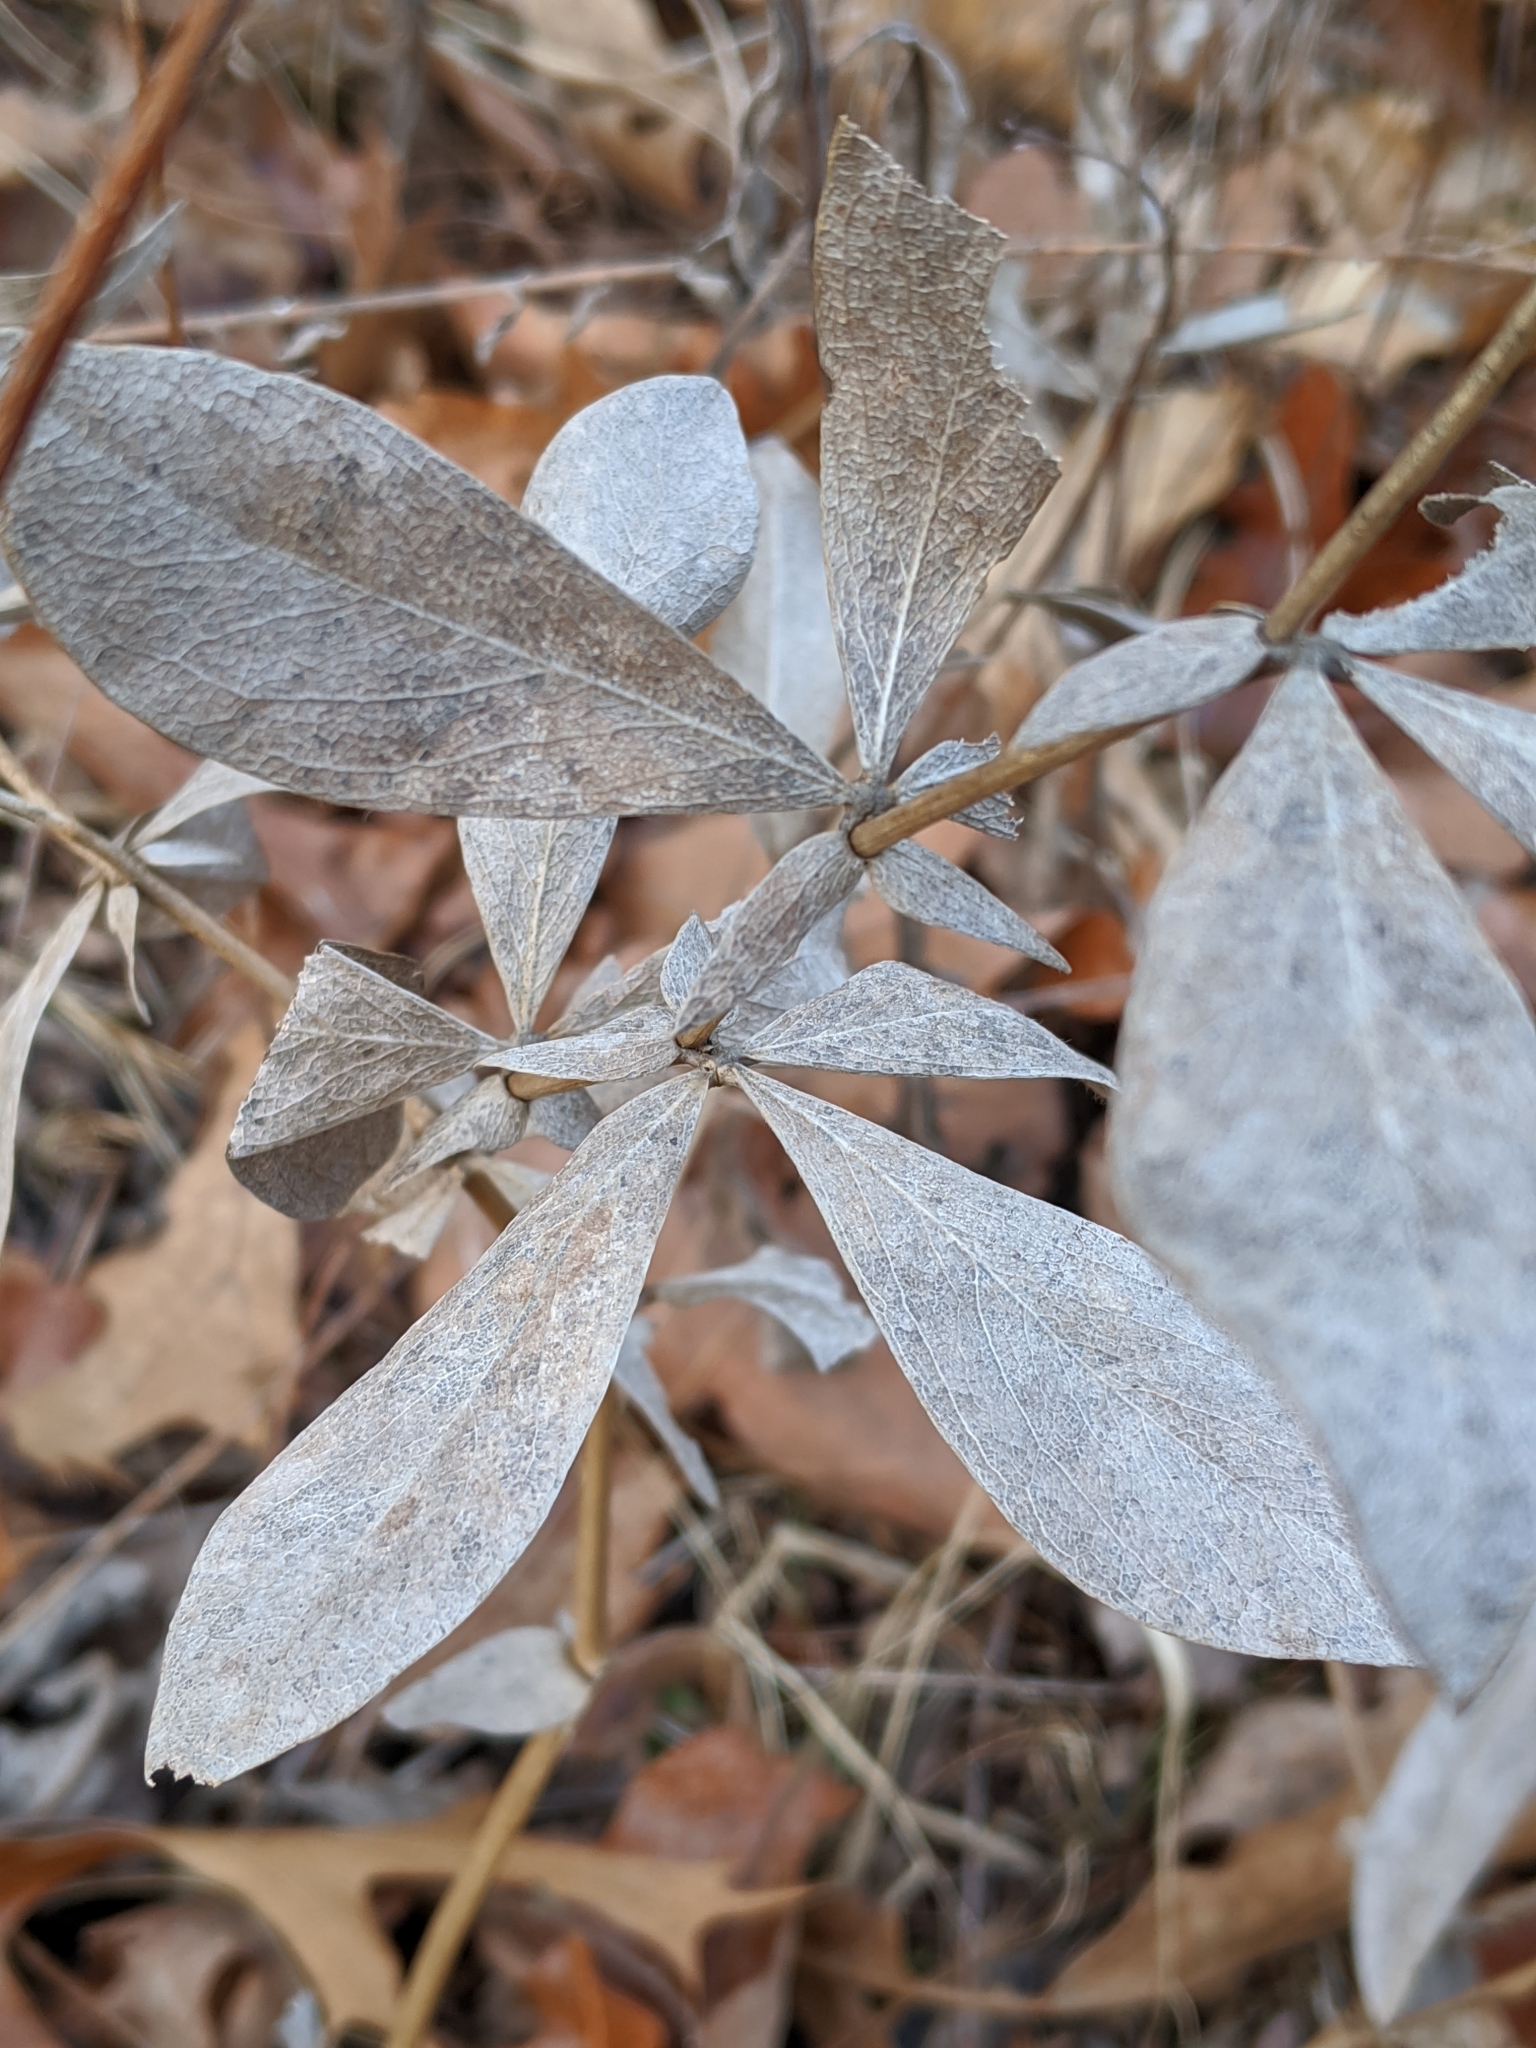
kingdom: Plantae
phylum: Tracheophyta
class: Magnoliopsida
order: Fabales
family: Fabaceae
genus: Baptisia
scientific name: Baptisia bracteata
